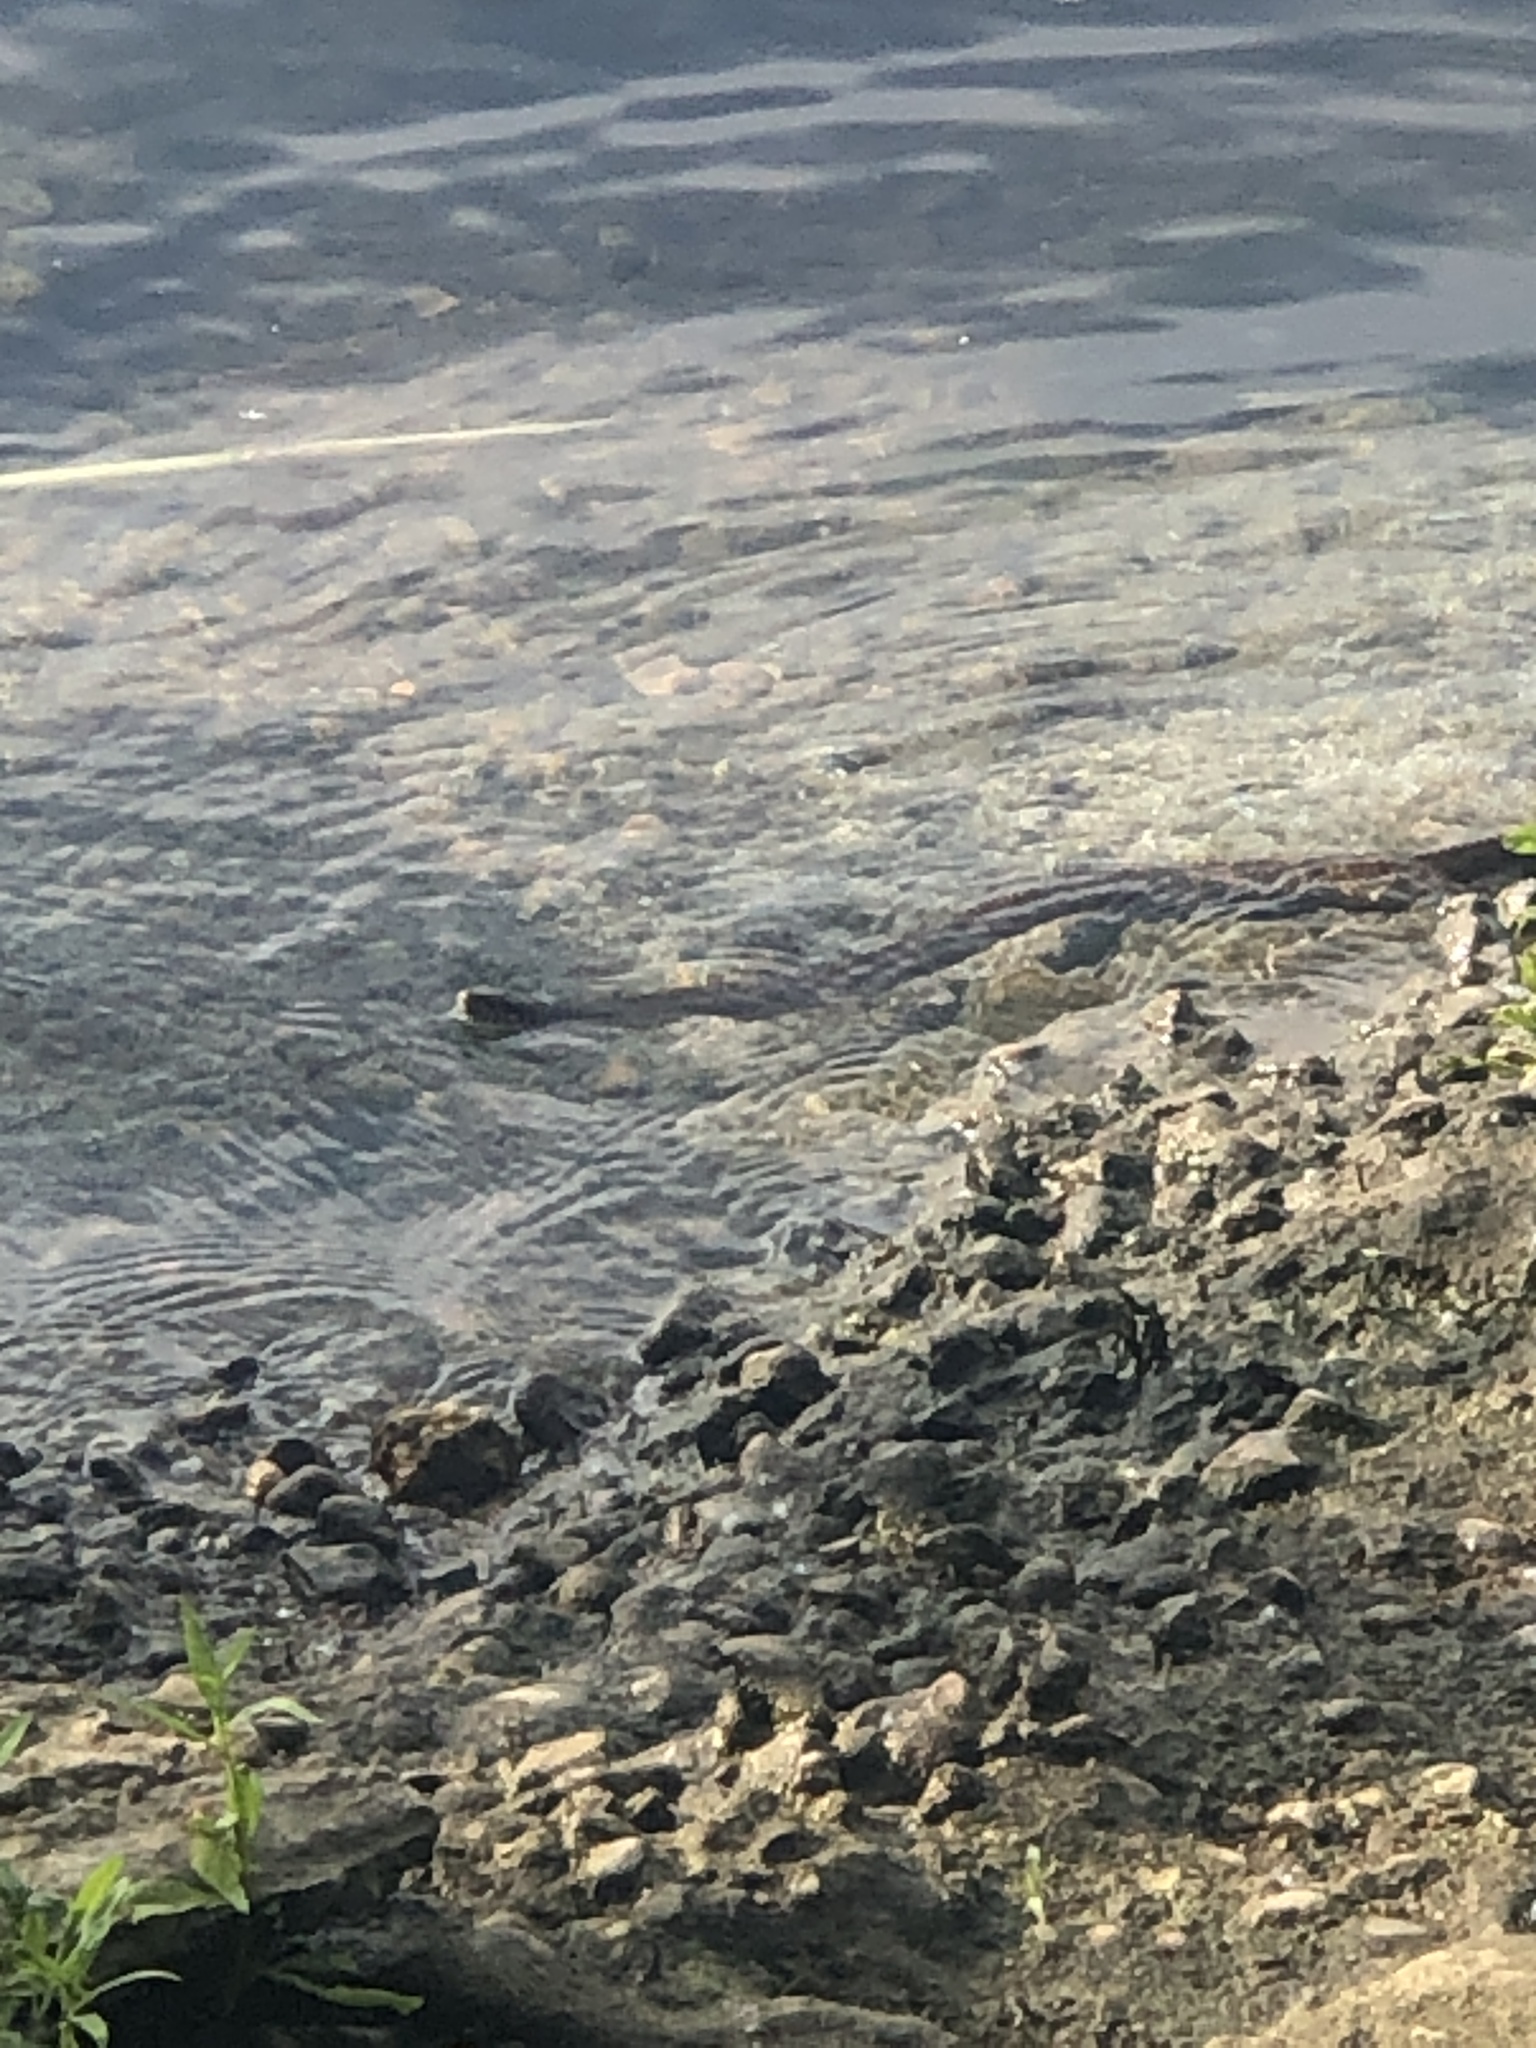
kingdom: Animalia
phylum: Chordata
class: Squamata
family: Colubridae
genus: Nerodia
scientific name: Nerodia erythrogaster
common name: Plainbelly water snake
